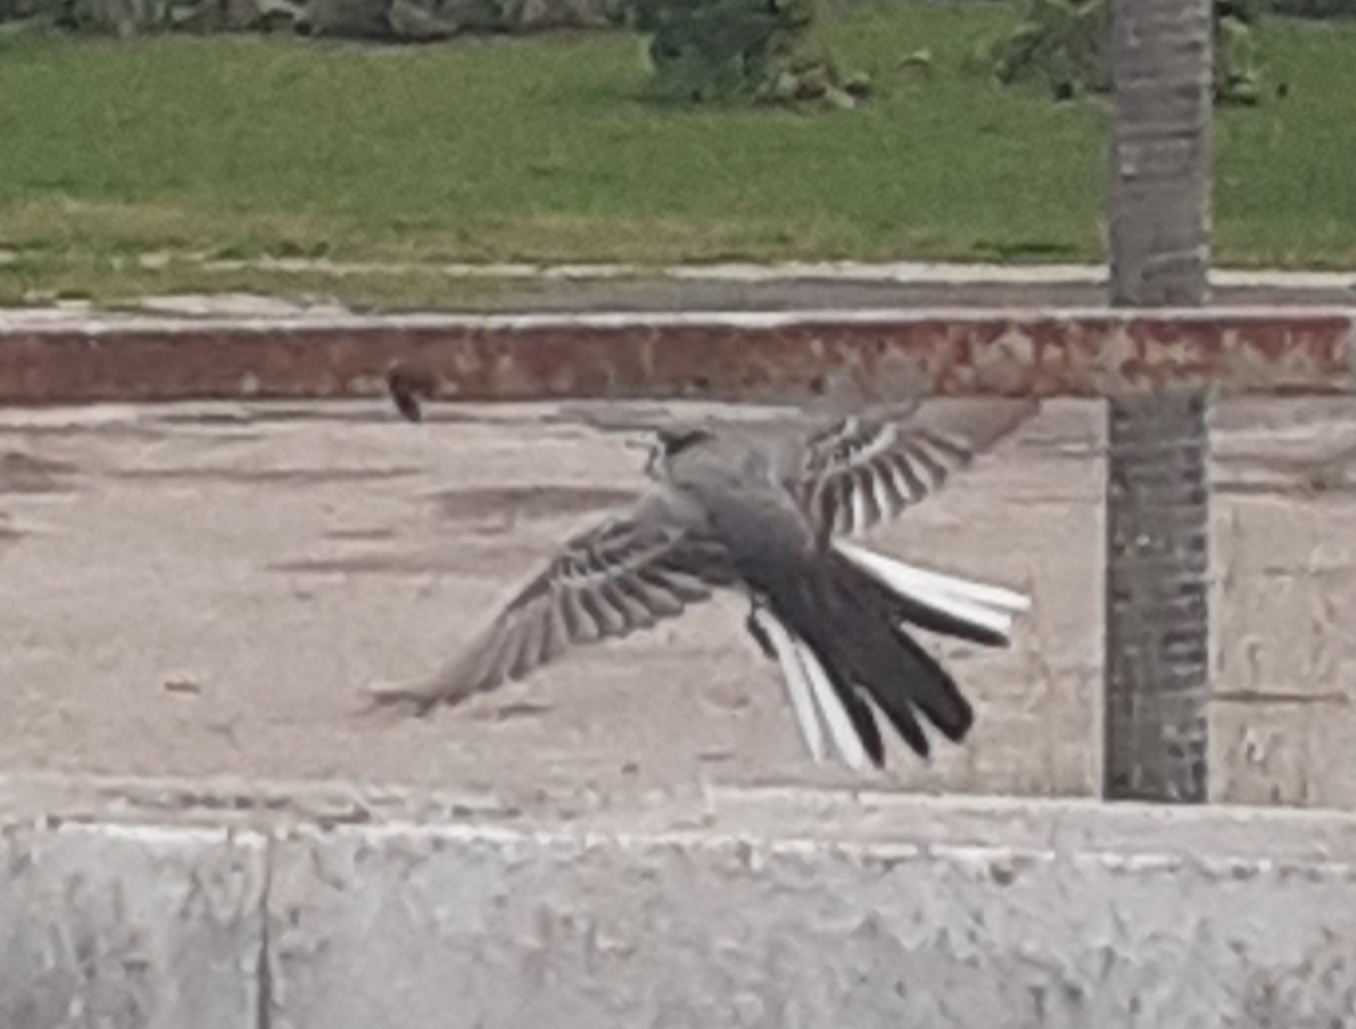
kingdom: Animalia
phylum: Chordata
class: Aves
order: Passeriformes
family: Motacillidae
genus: Motacilla
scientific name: Motacilla alba
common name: White wagtail
